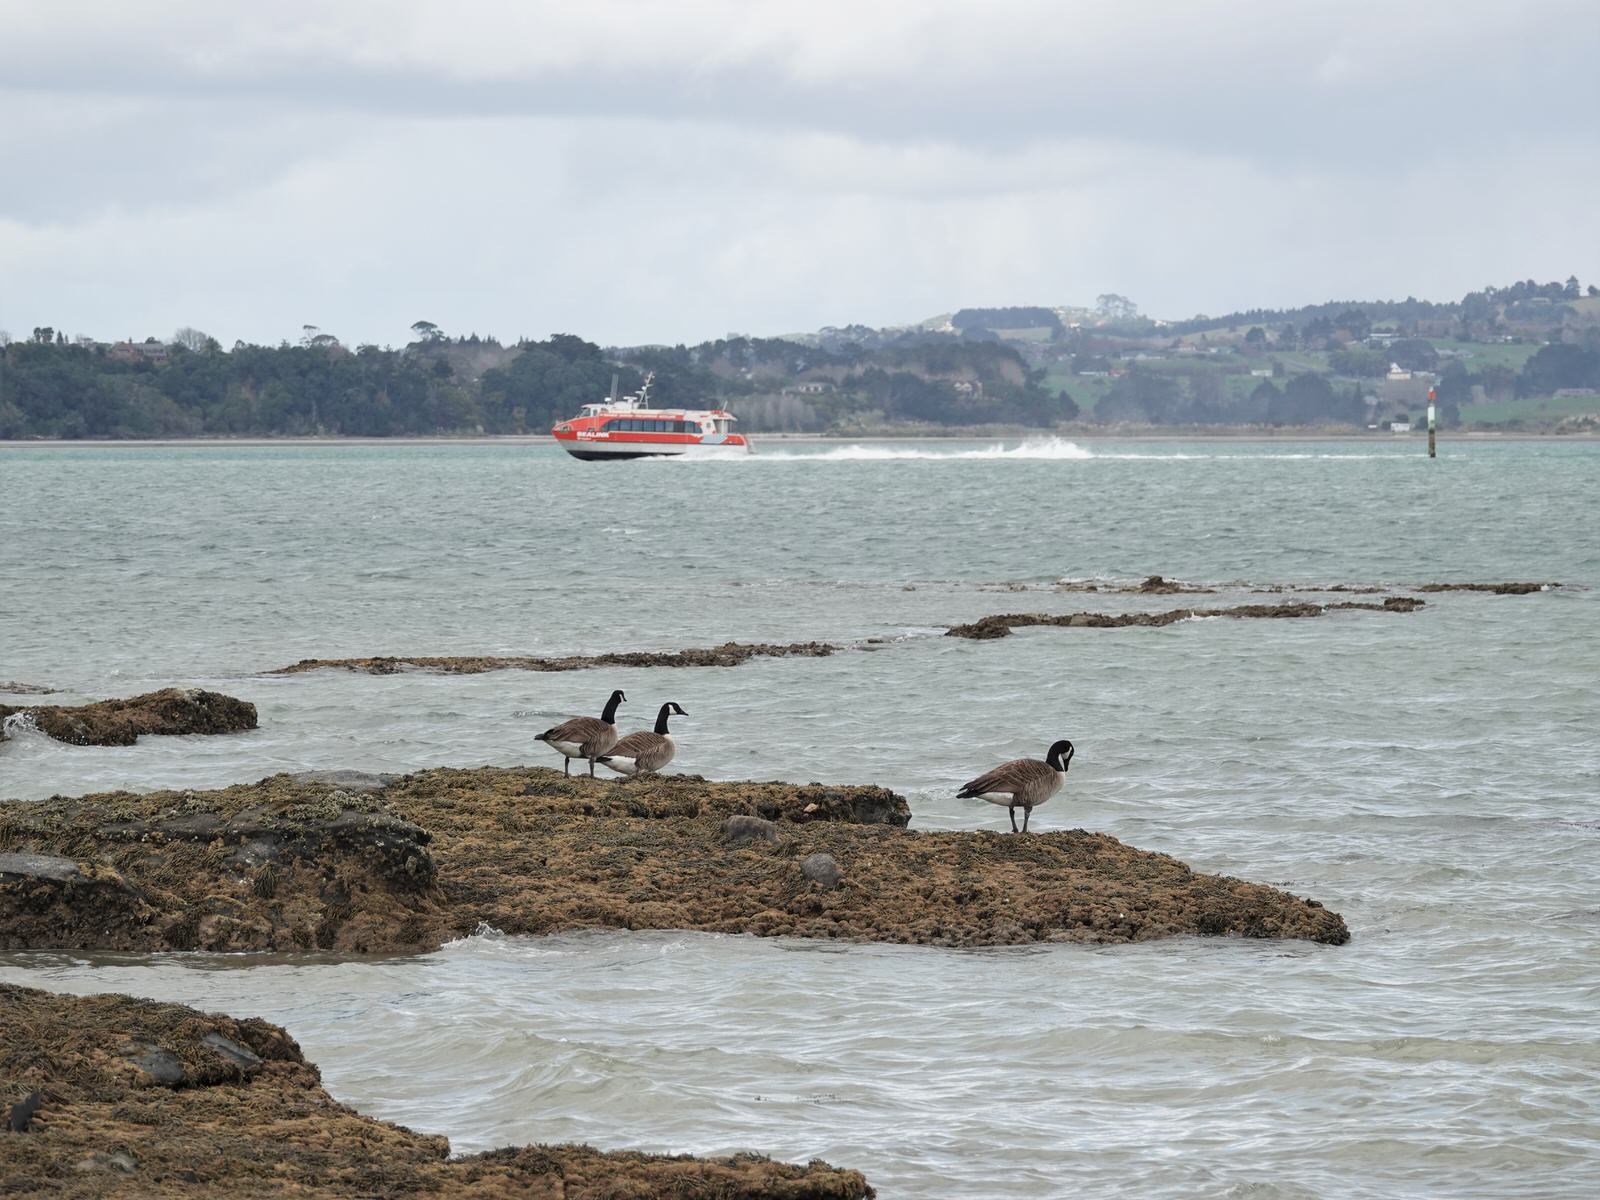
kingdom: Animalia
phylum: Chordata
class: Aves
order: Anseriformes
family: Anatidae
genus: Branta
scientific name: Branta canadensis
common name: Canada goose
